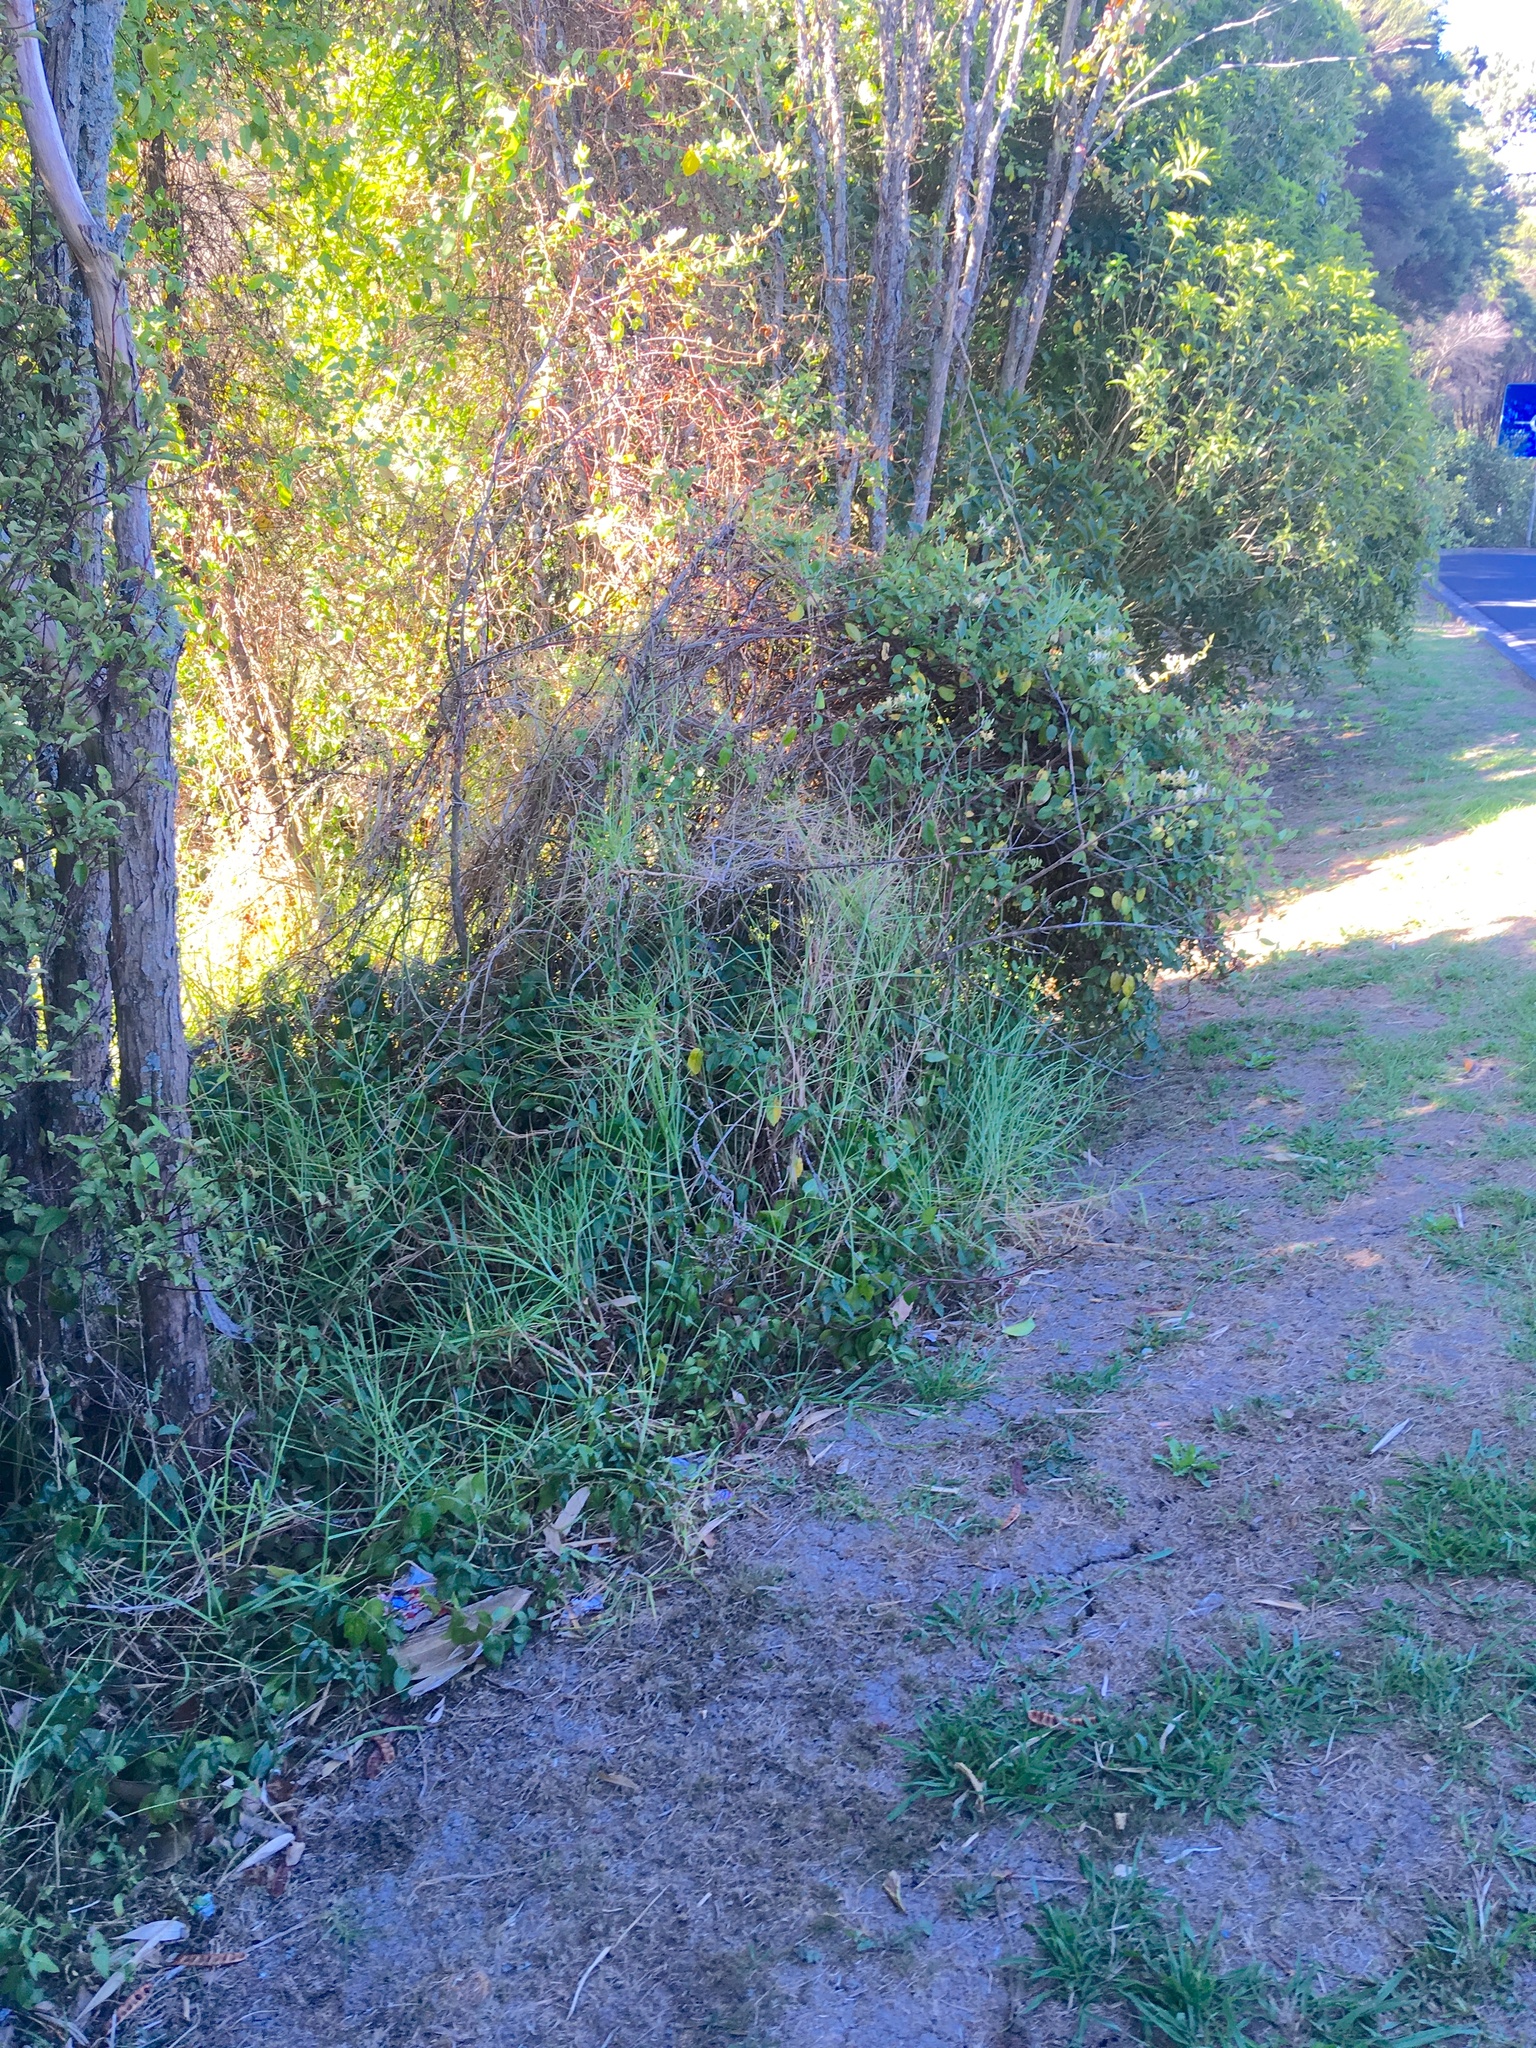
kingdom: Plantae
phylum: Tracheophyta
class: Liliopsida
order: Poales
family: Poaceae
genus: Ehrharta
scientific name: Ehrharta erecta
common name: Panic veldtgrass
